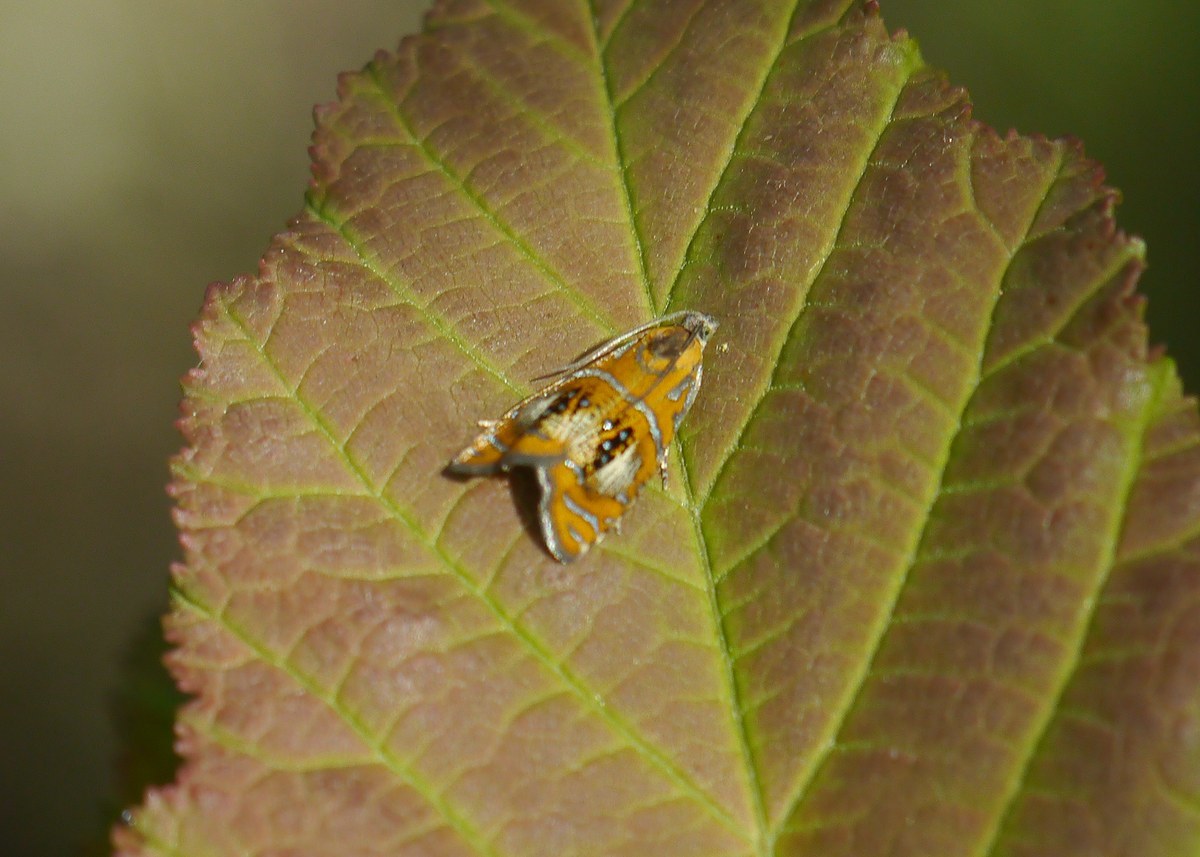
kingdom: Animalia
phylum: Arthropoda
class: Insecta
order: Lepidoptera
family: Tortricidae
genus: Olethreutes
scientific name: Olethreutes arcuella
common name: Arched marble
